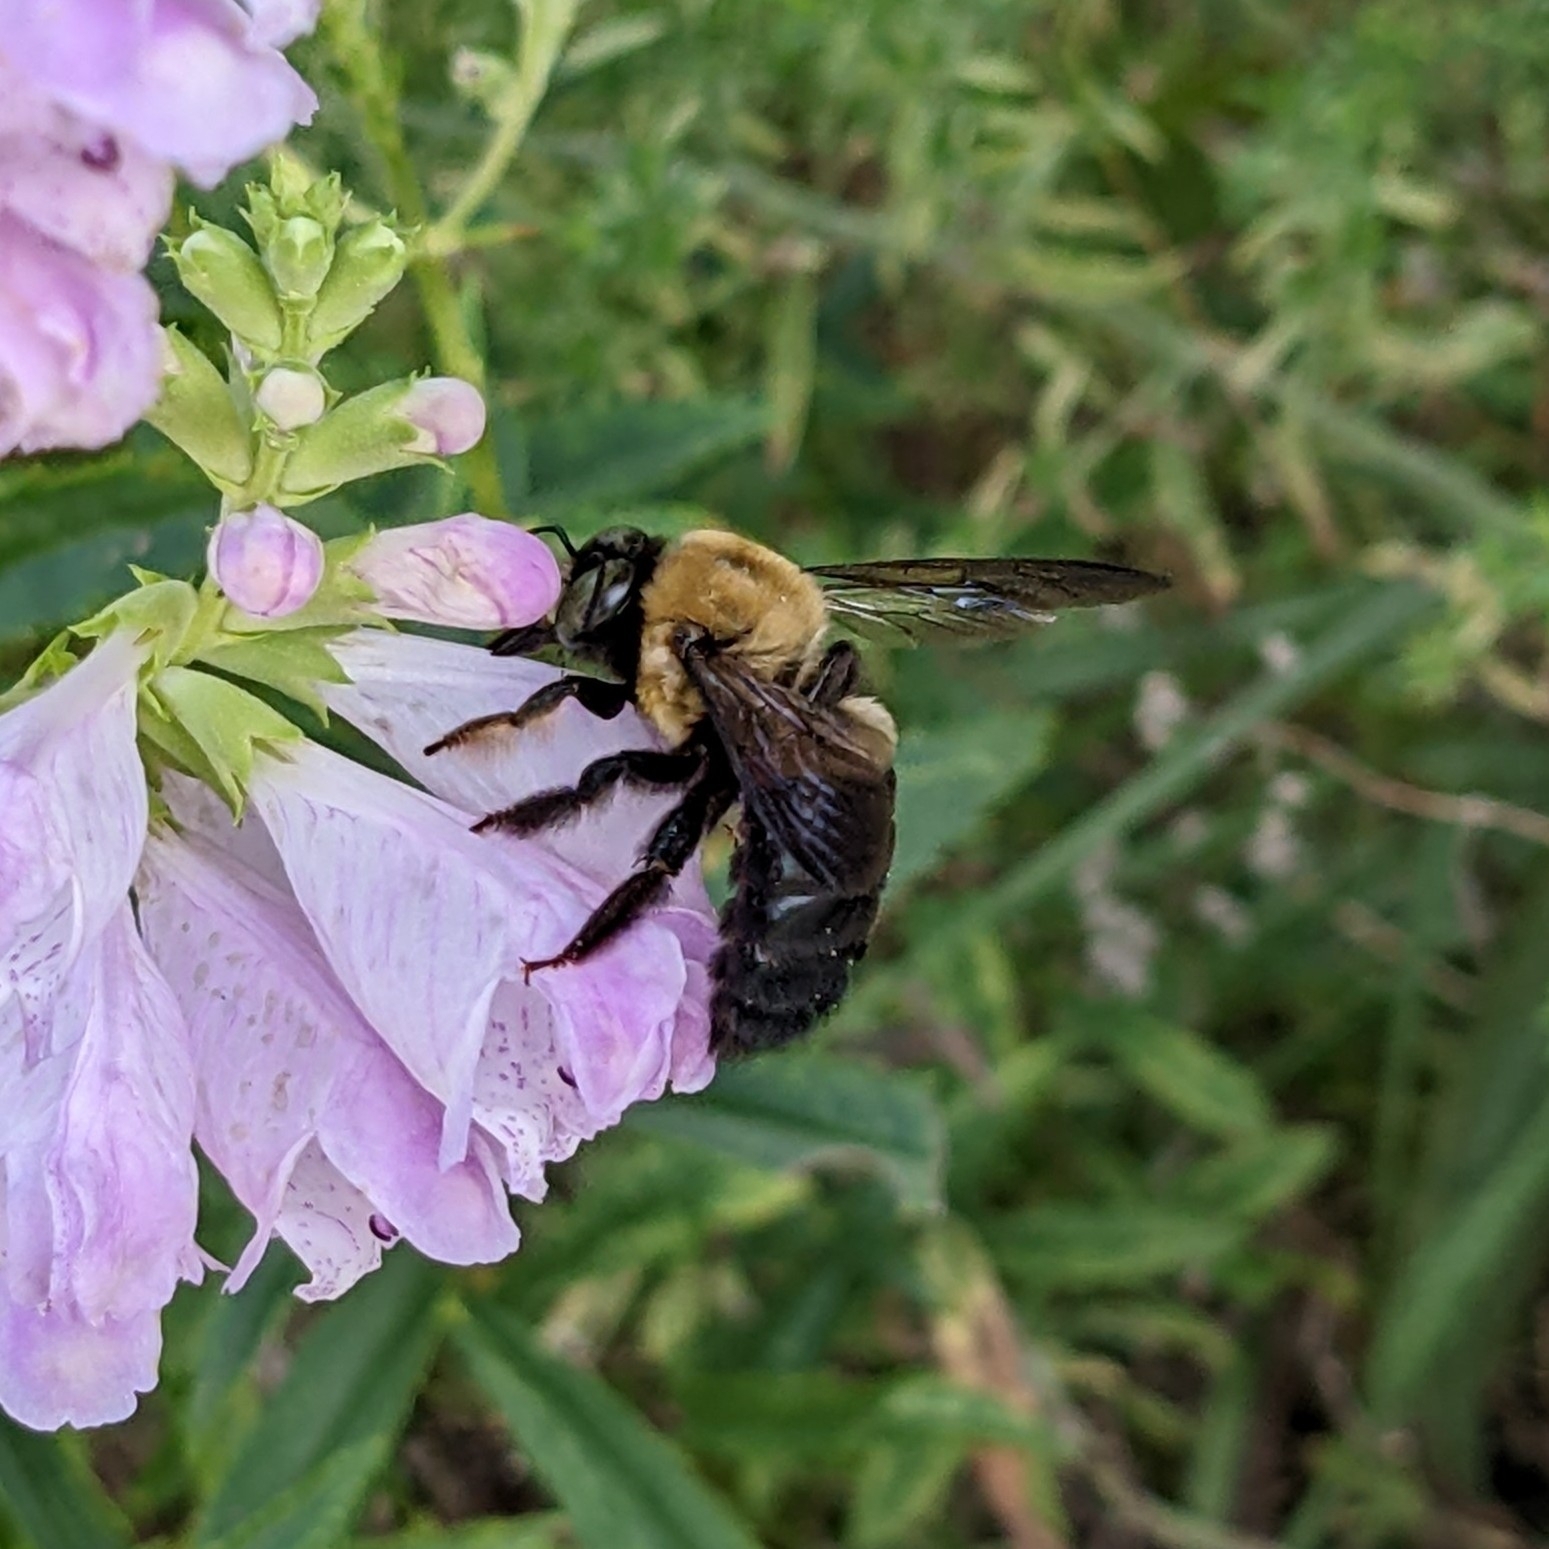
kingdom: Animalia
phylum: Arthropoda
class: Insecta
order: Hymenoptera
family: Apidae
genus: Xylocopa
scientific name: Xylocopa virginica
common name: Carpenter bee
